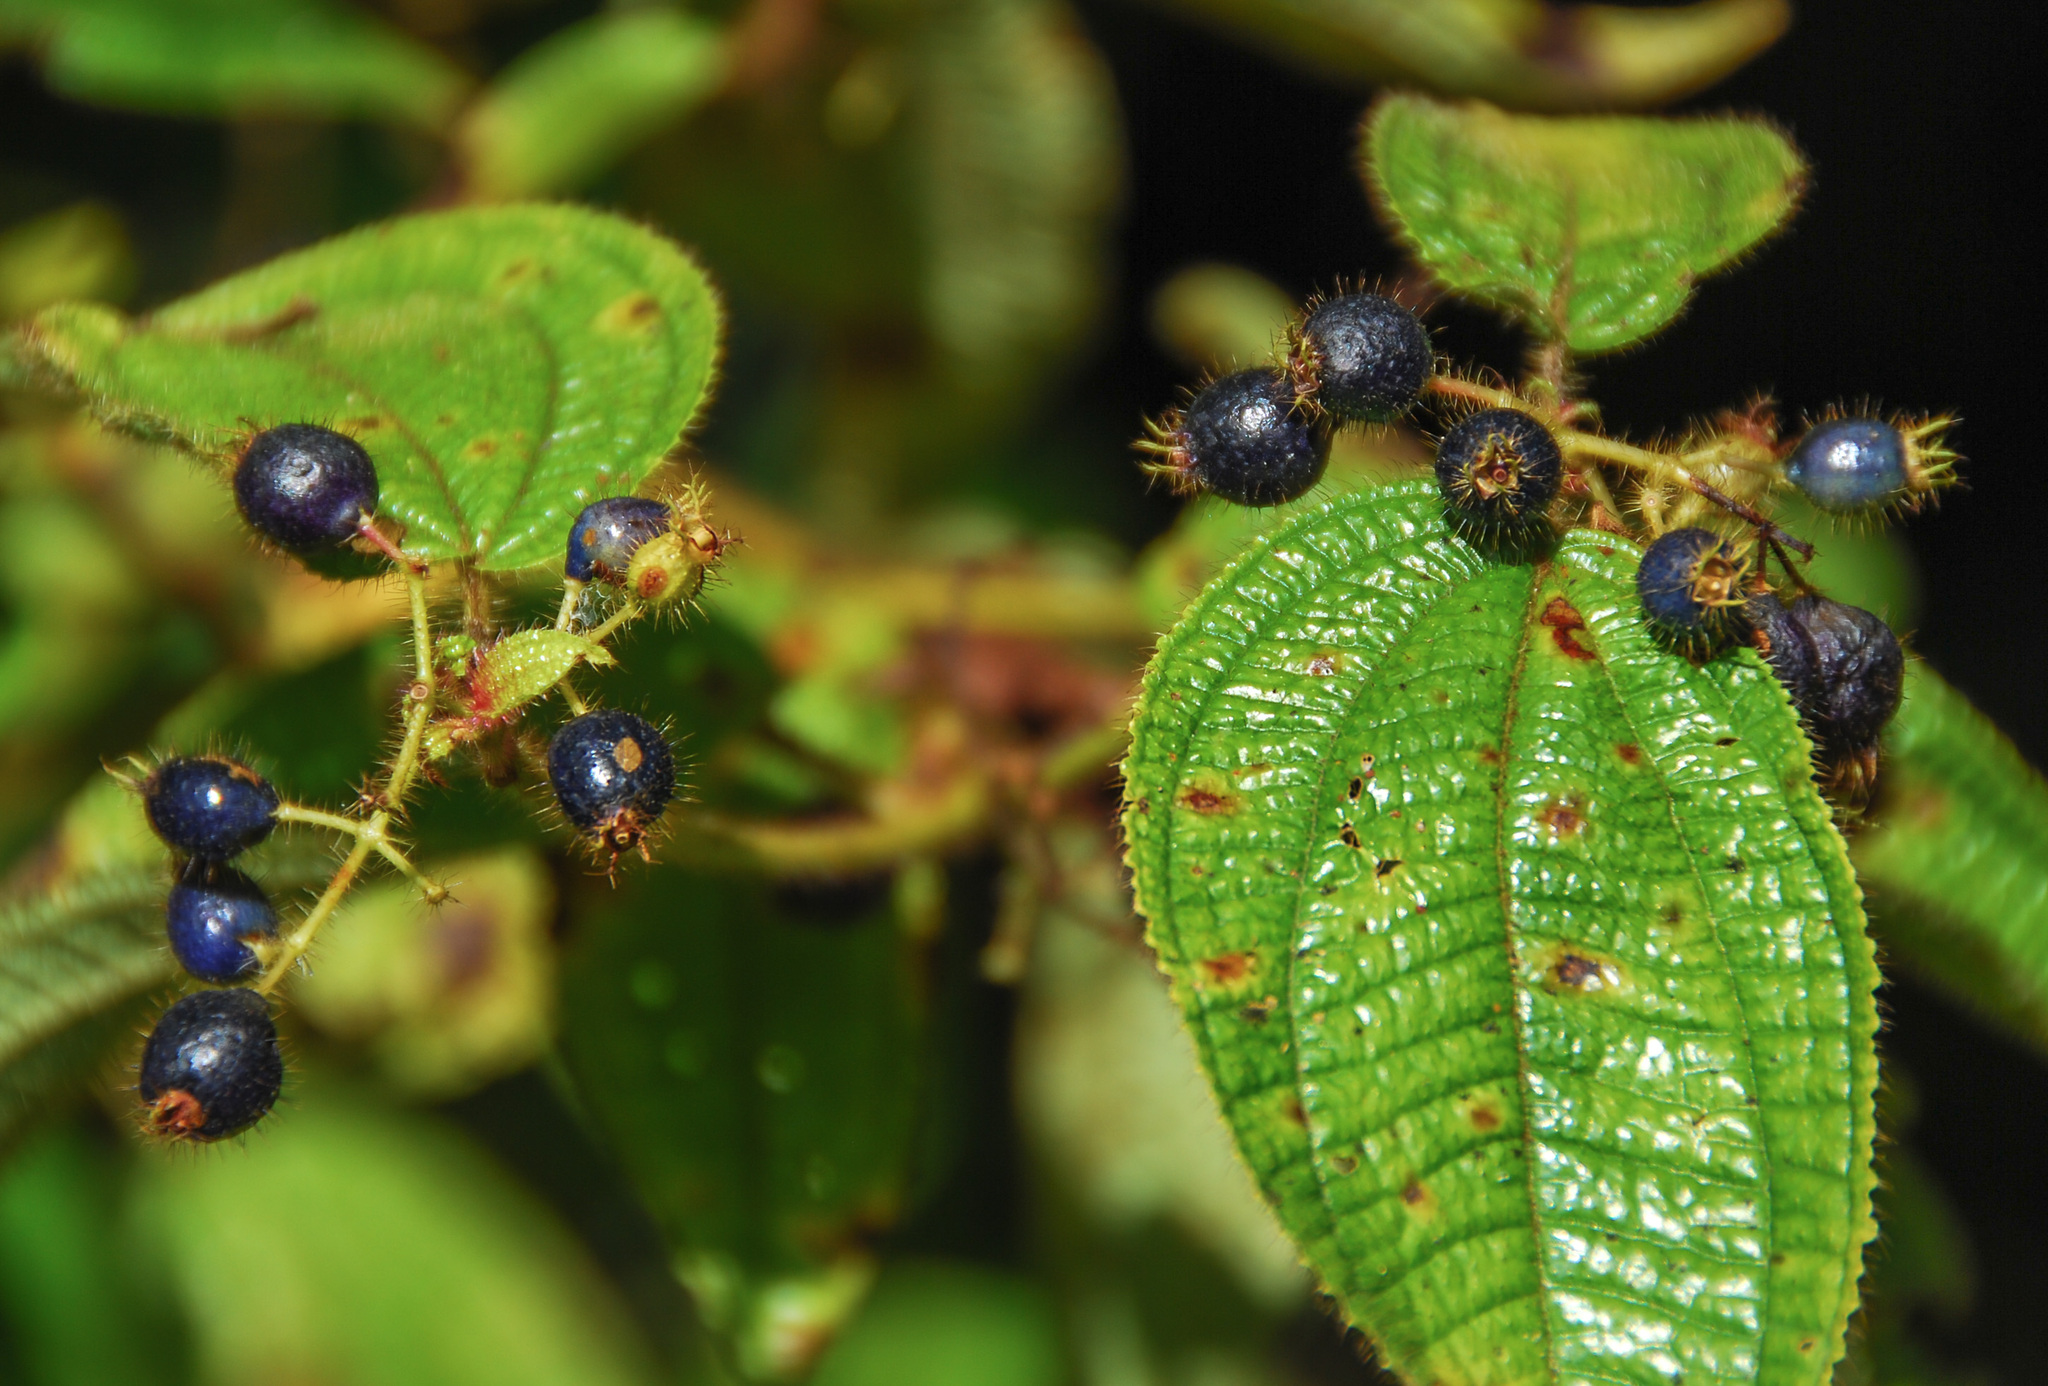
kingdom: Plantae
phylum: Tracheophyta
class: Magnoliopsida
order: Myrtales
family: Melastomataceae
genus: Miconia
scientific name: Miconia crenata
